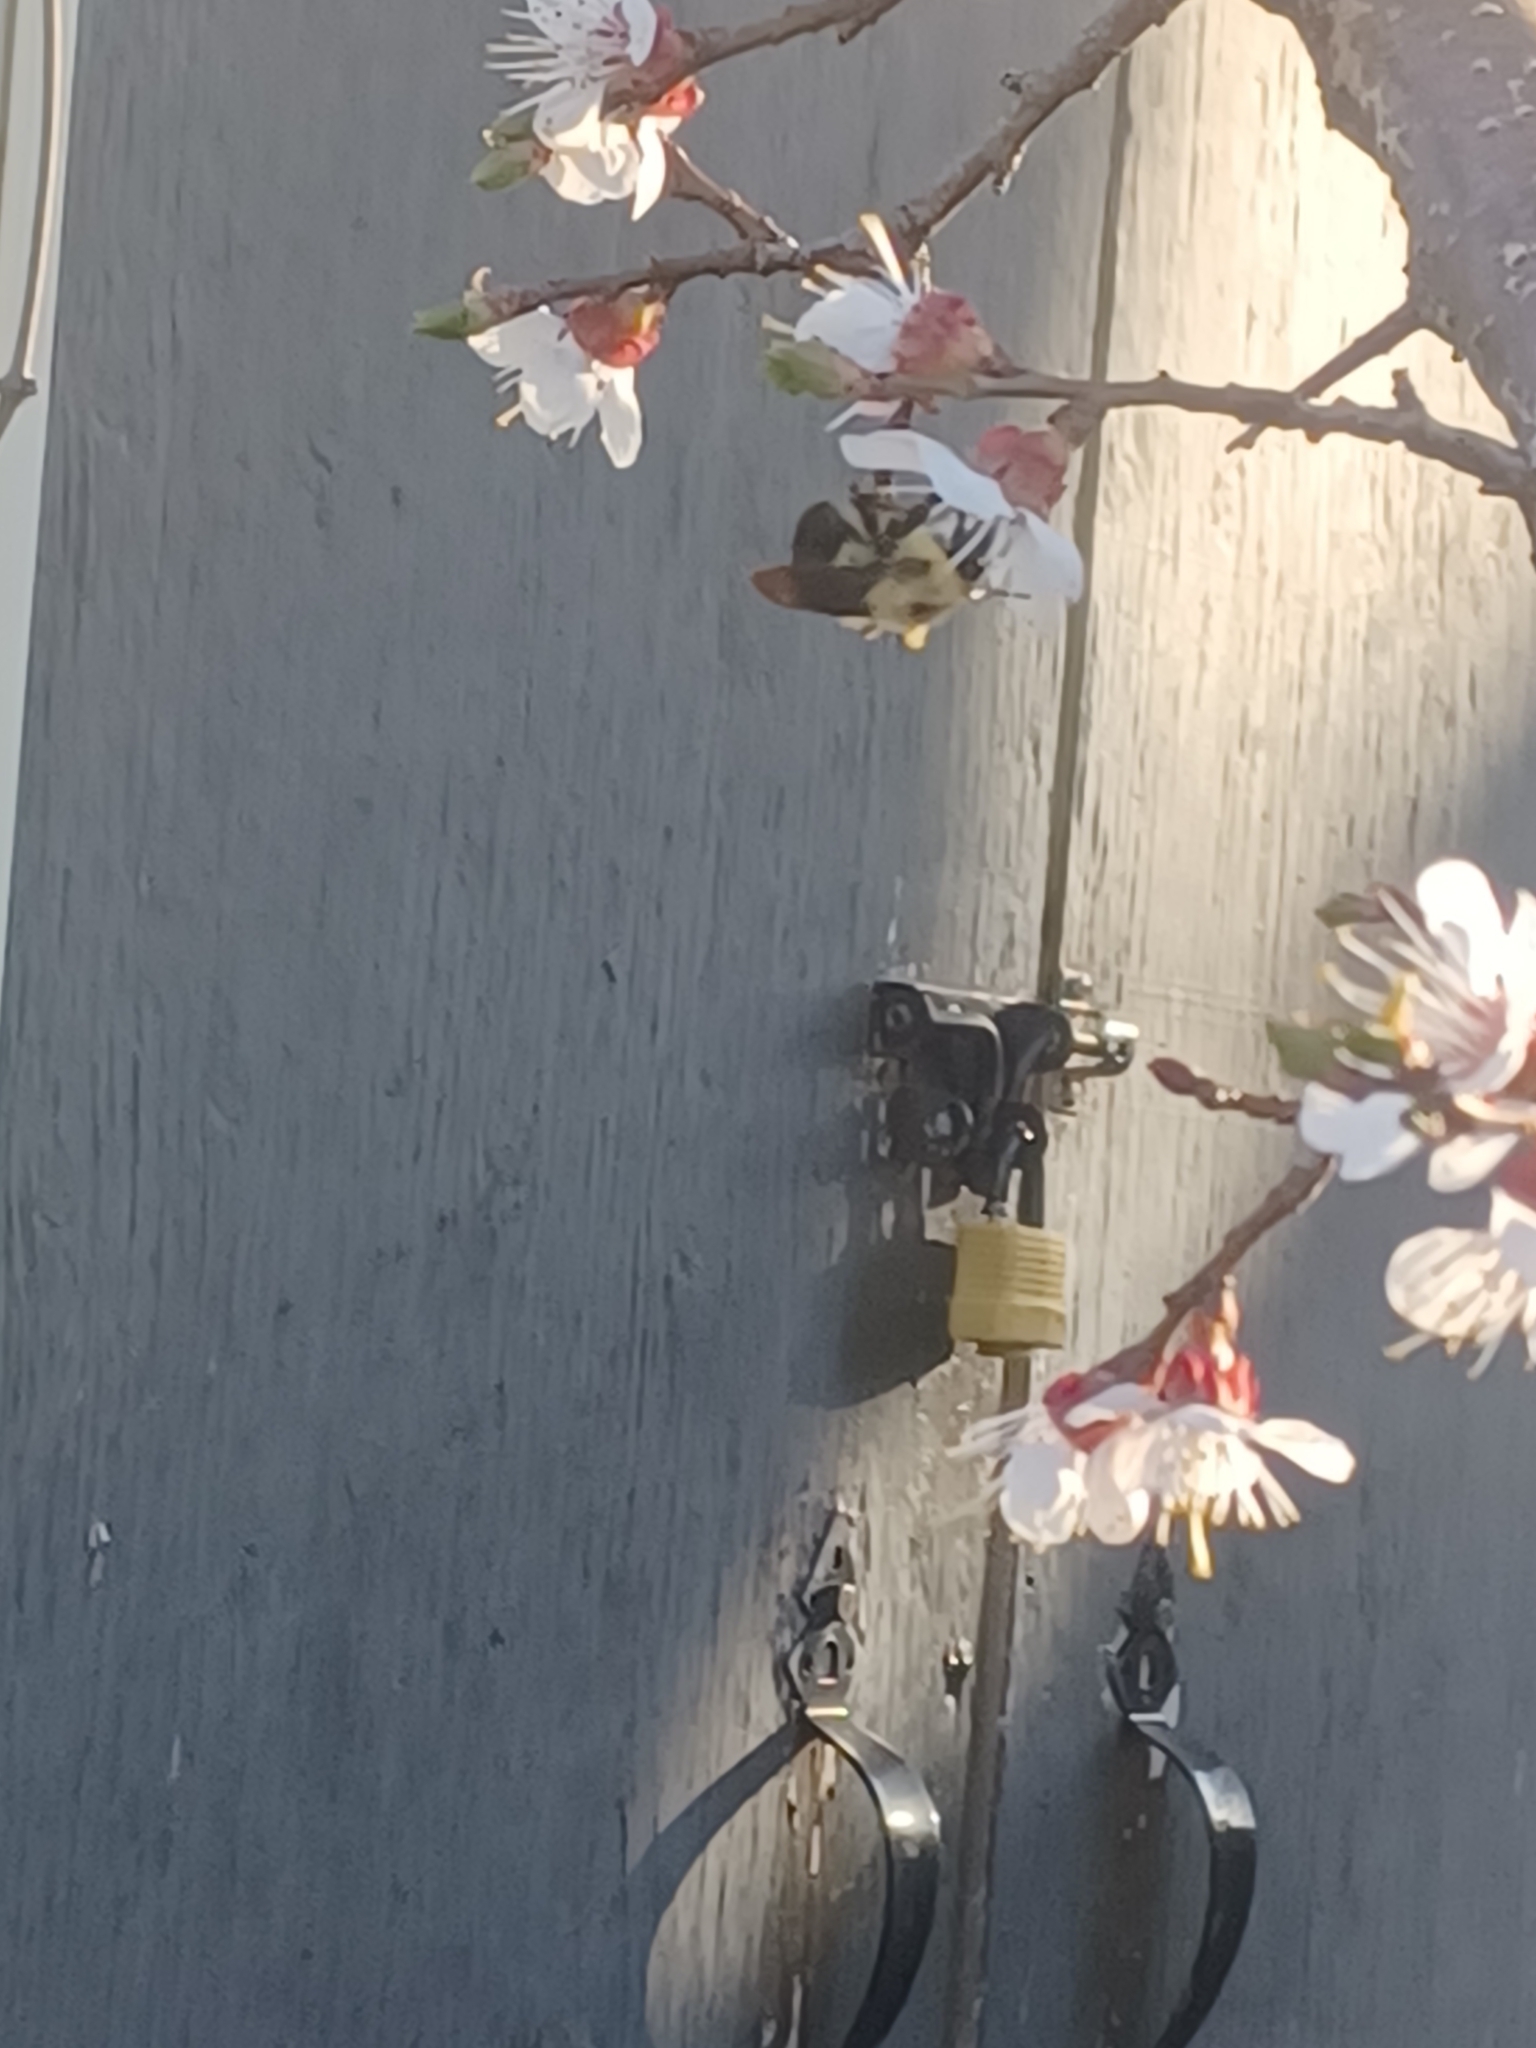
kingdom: Animalia
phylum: Arthropoda
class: Insecta
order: Hymenoptera
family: Apidae
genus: Bombus
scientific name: Bombus bimaculatus
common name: Two-spotted bumble bee
